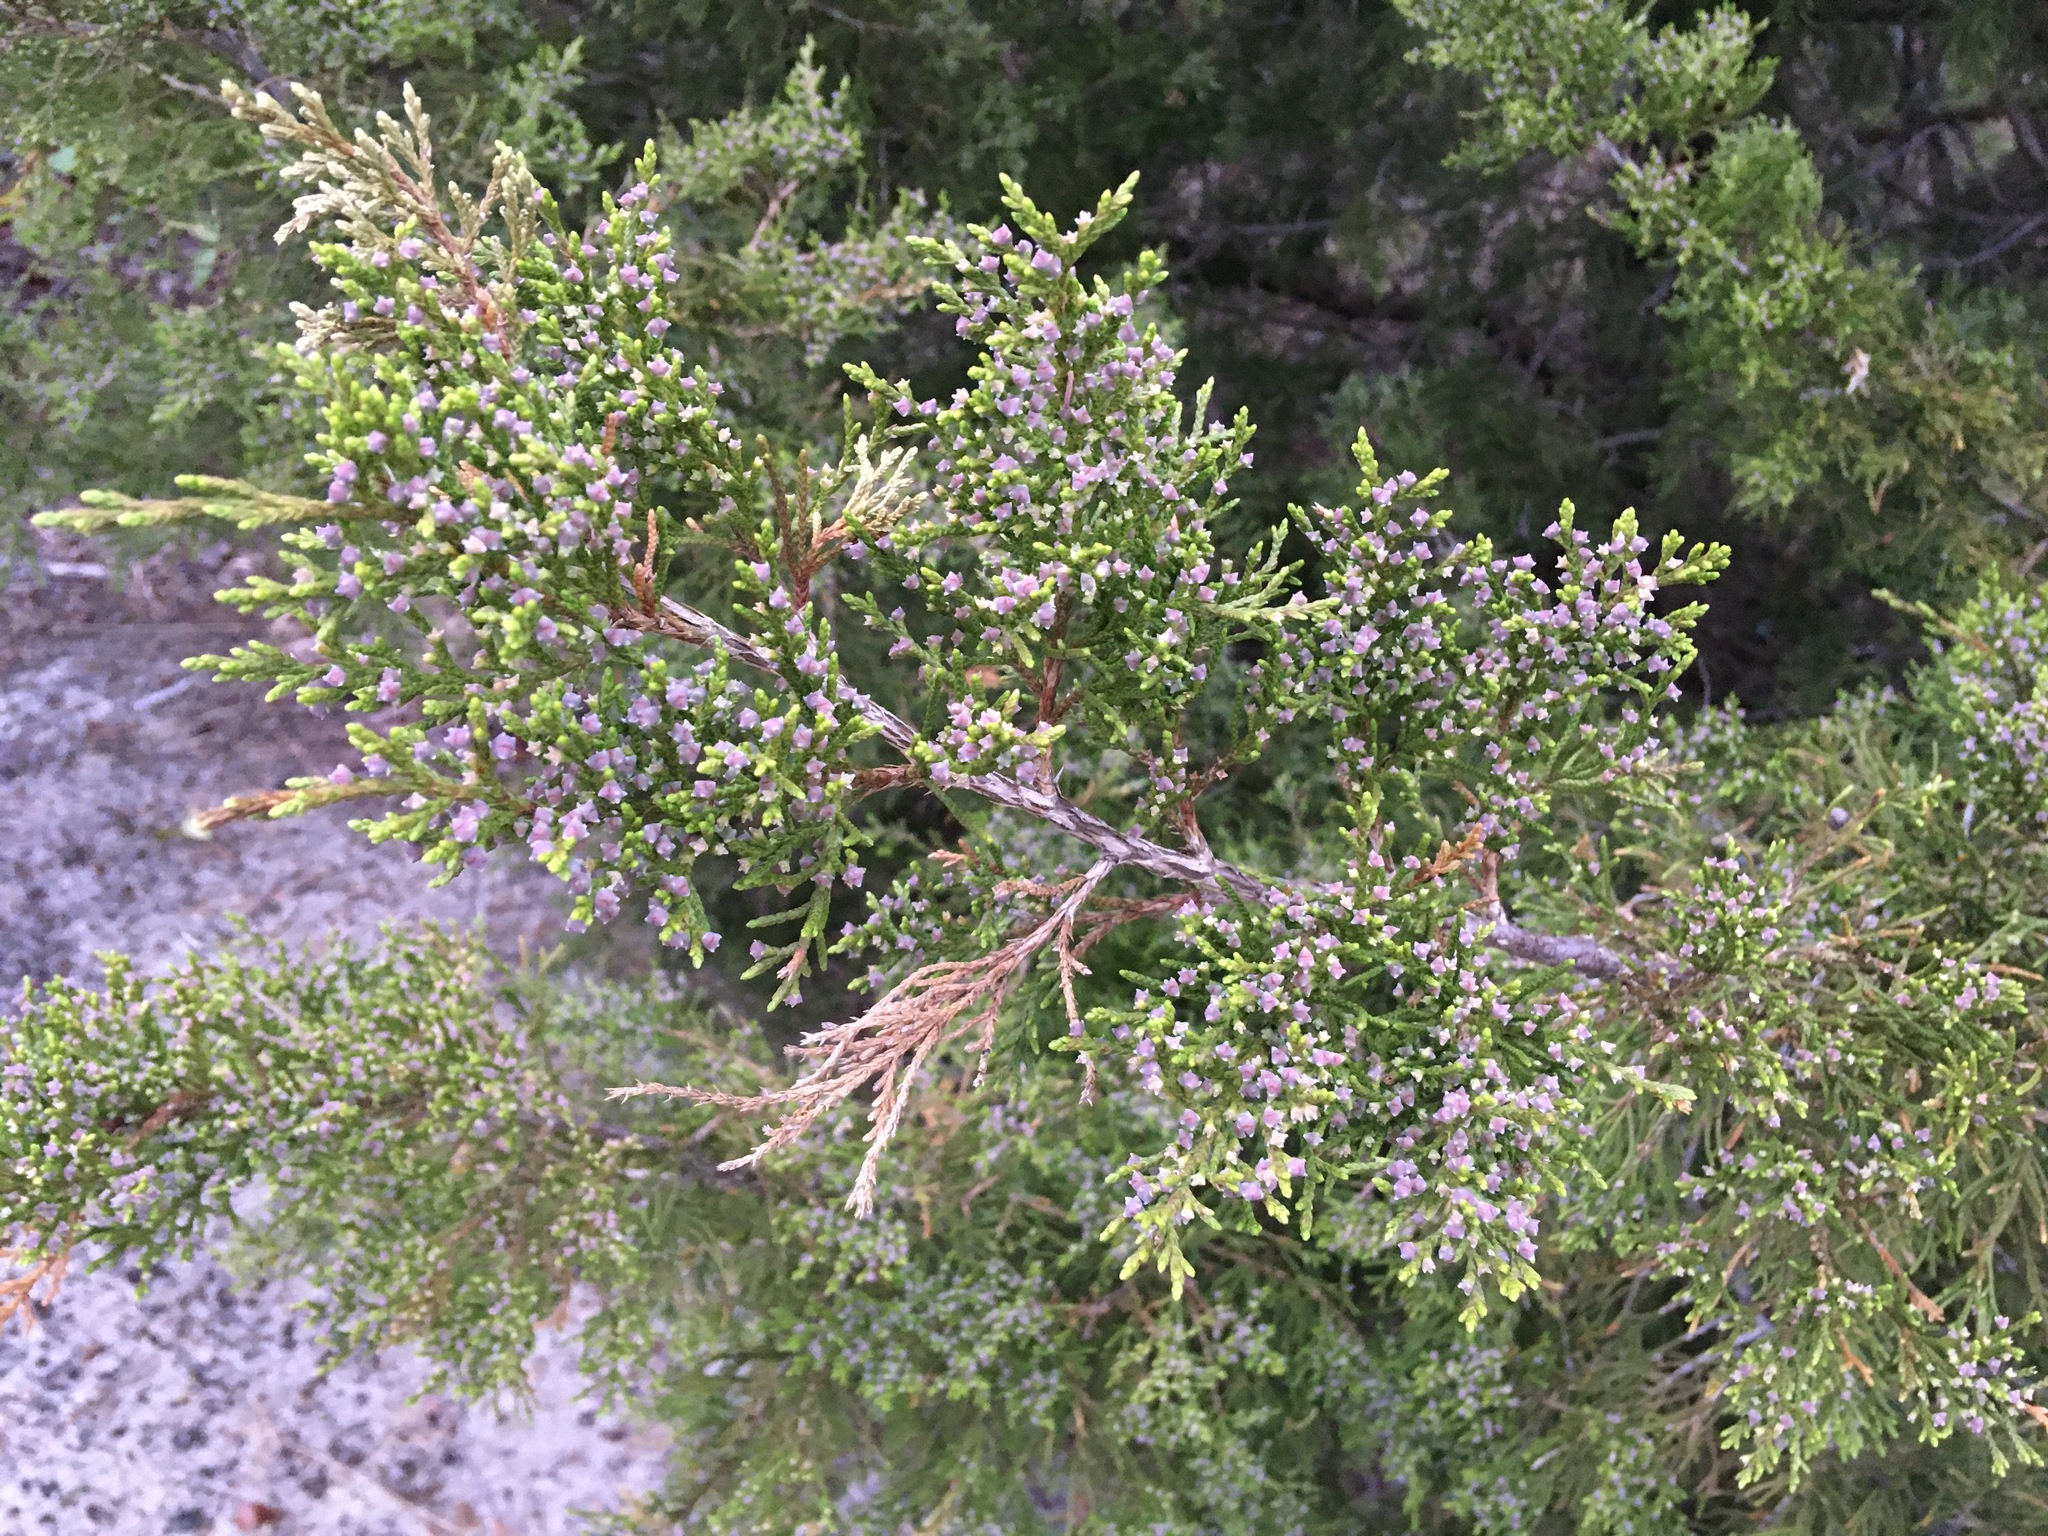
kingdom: Plantae
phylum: Tracheophyta
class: Pinopsida
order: Pinales
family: Cupressaceae
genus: Juniperus
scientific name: Juniperus virginiana
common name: Red juniper
